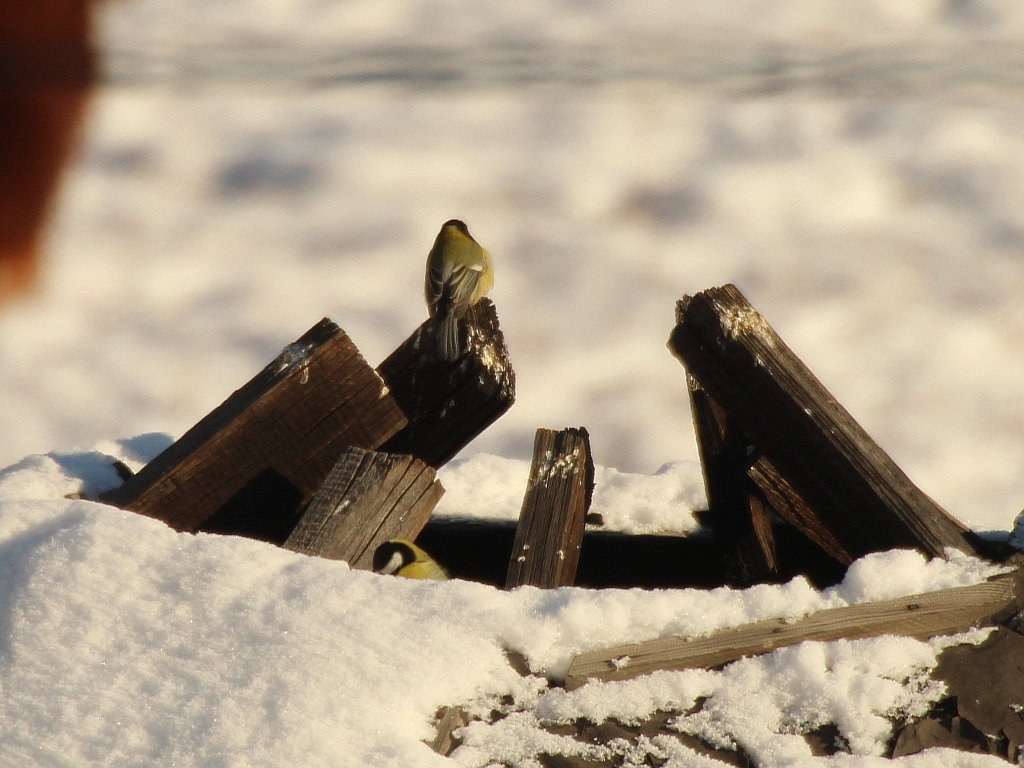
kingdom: Animalia
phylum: Chordata
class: Aves
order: Passeriformes
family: Paridae
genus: Parus
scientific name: Parus major
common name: Great tit
